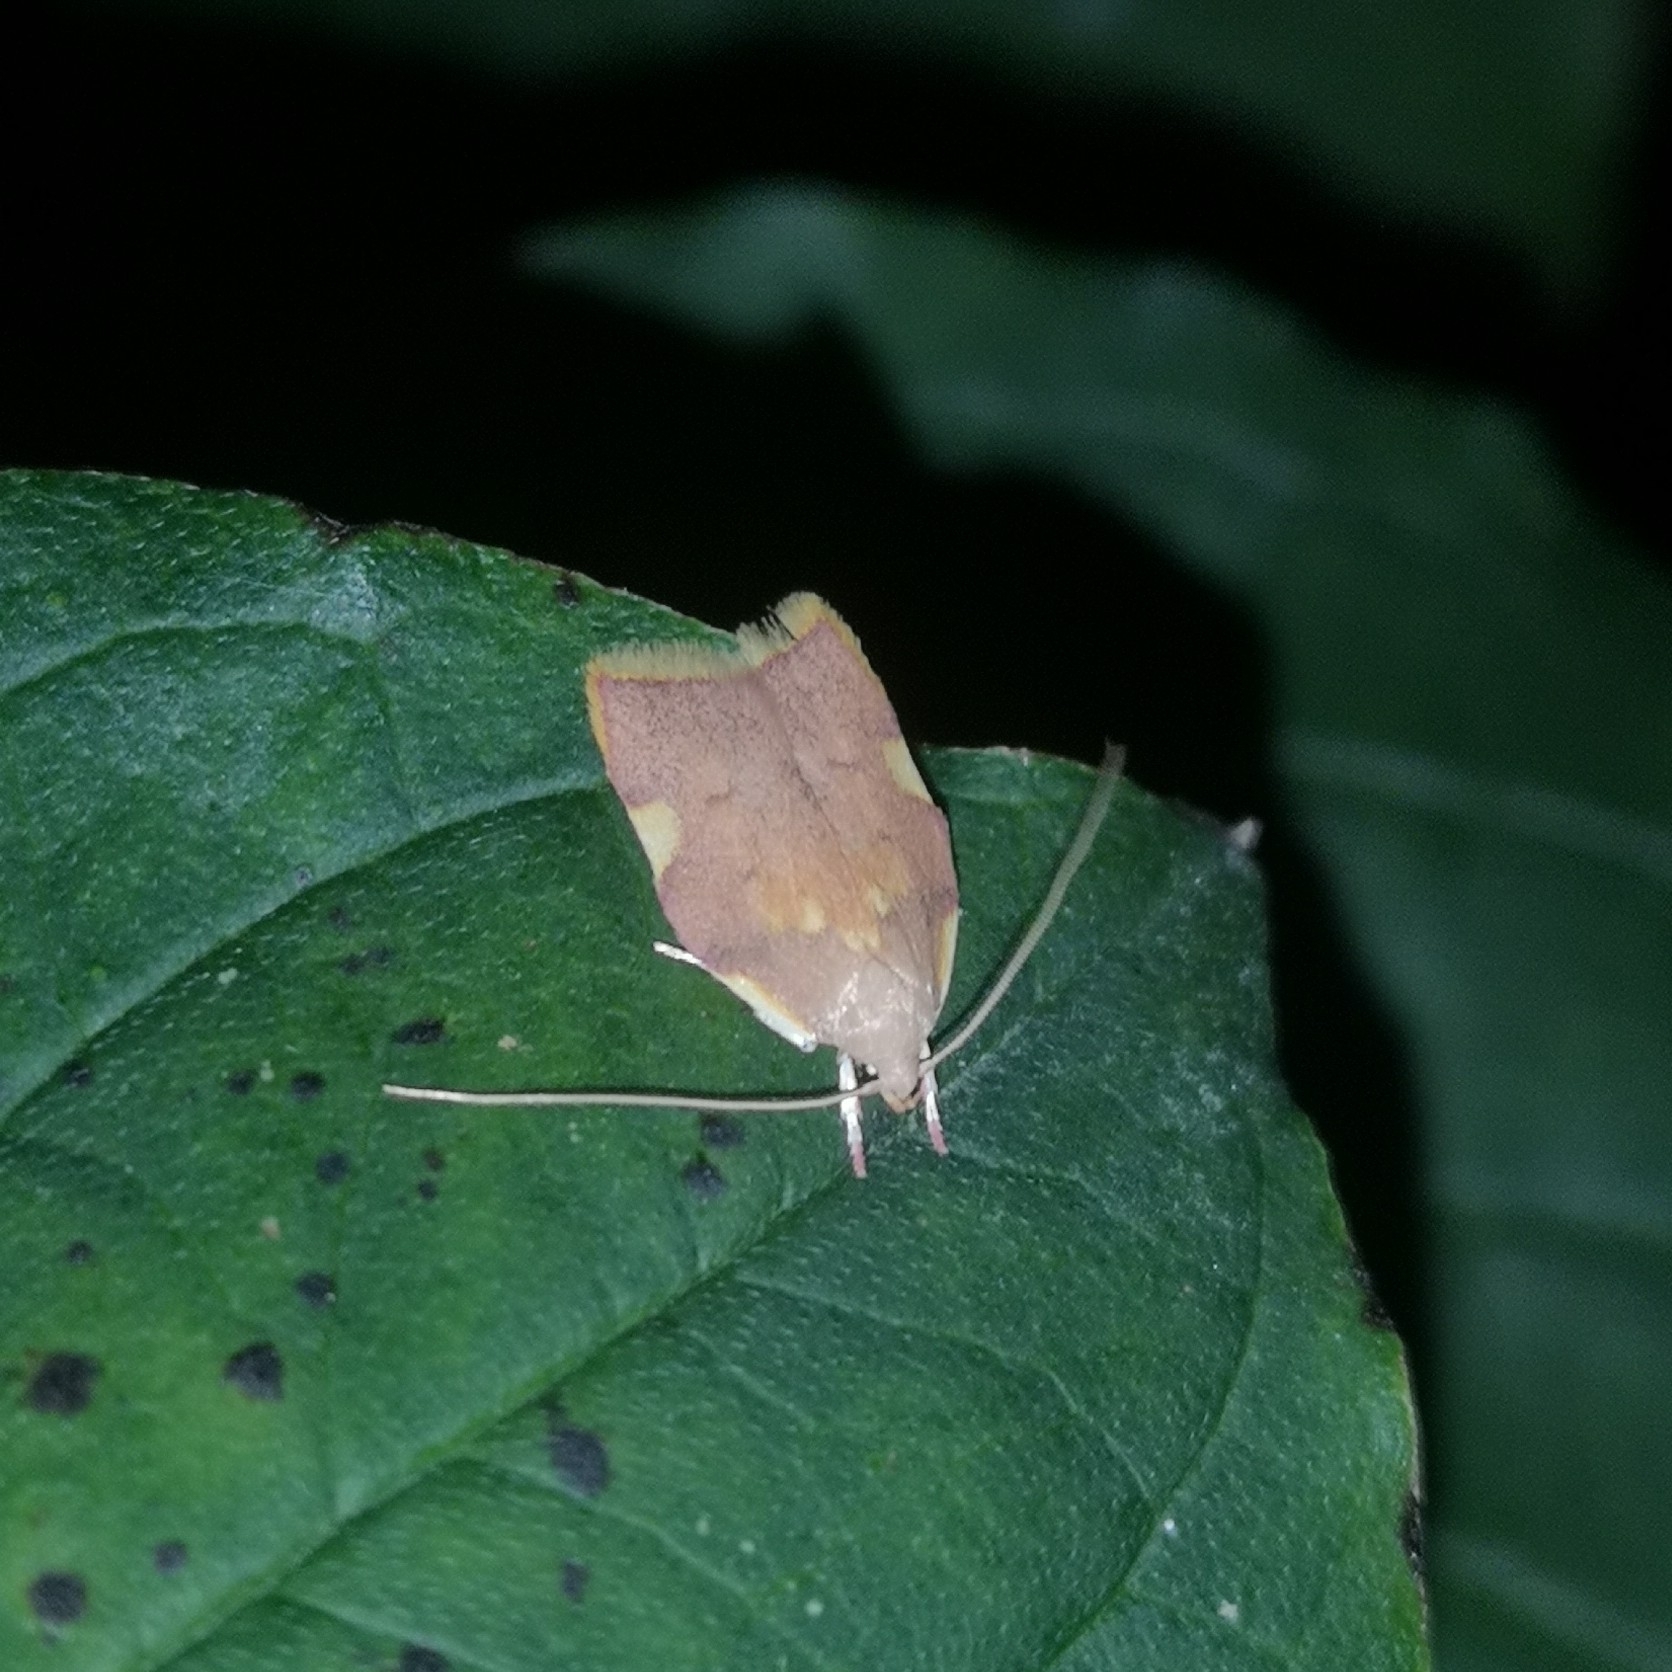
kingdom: Animalia
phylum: Arthropoda
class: Insecta
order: Lepidoptera
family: Peleopodidae
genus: Carcina
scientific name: Carcina quercana
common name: Moth
